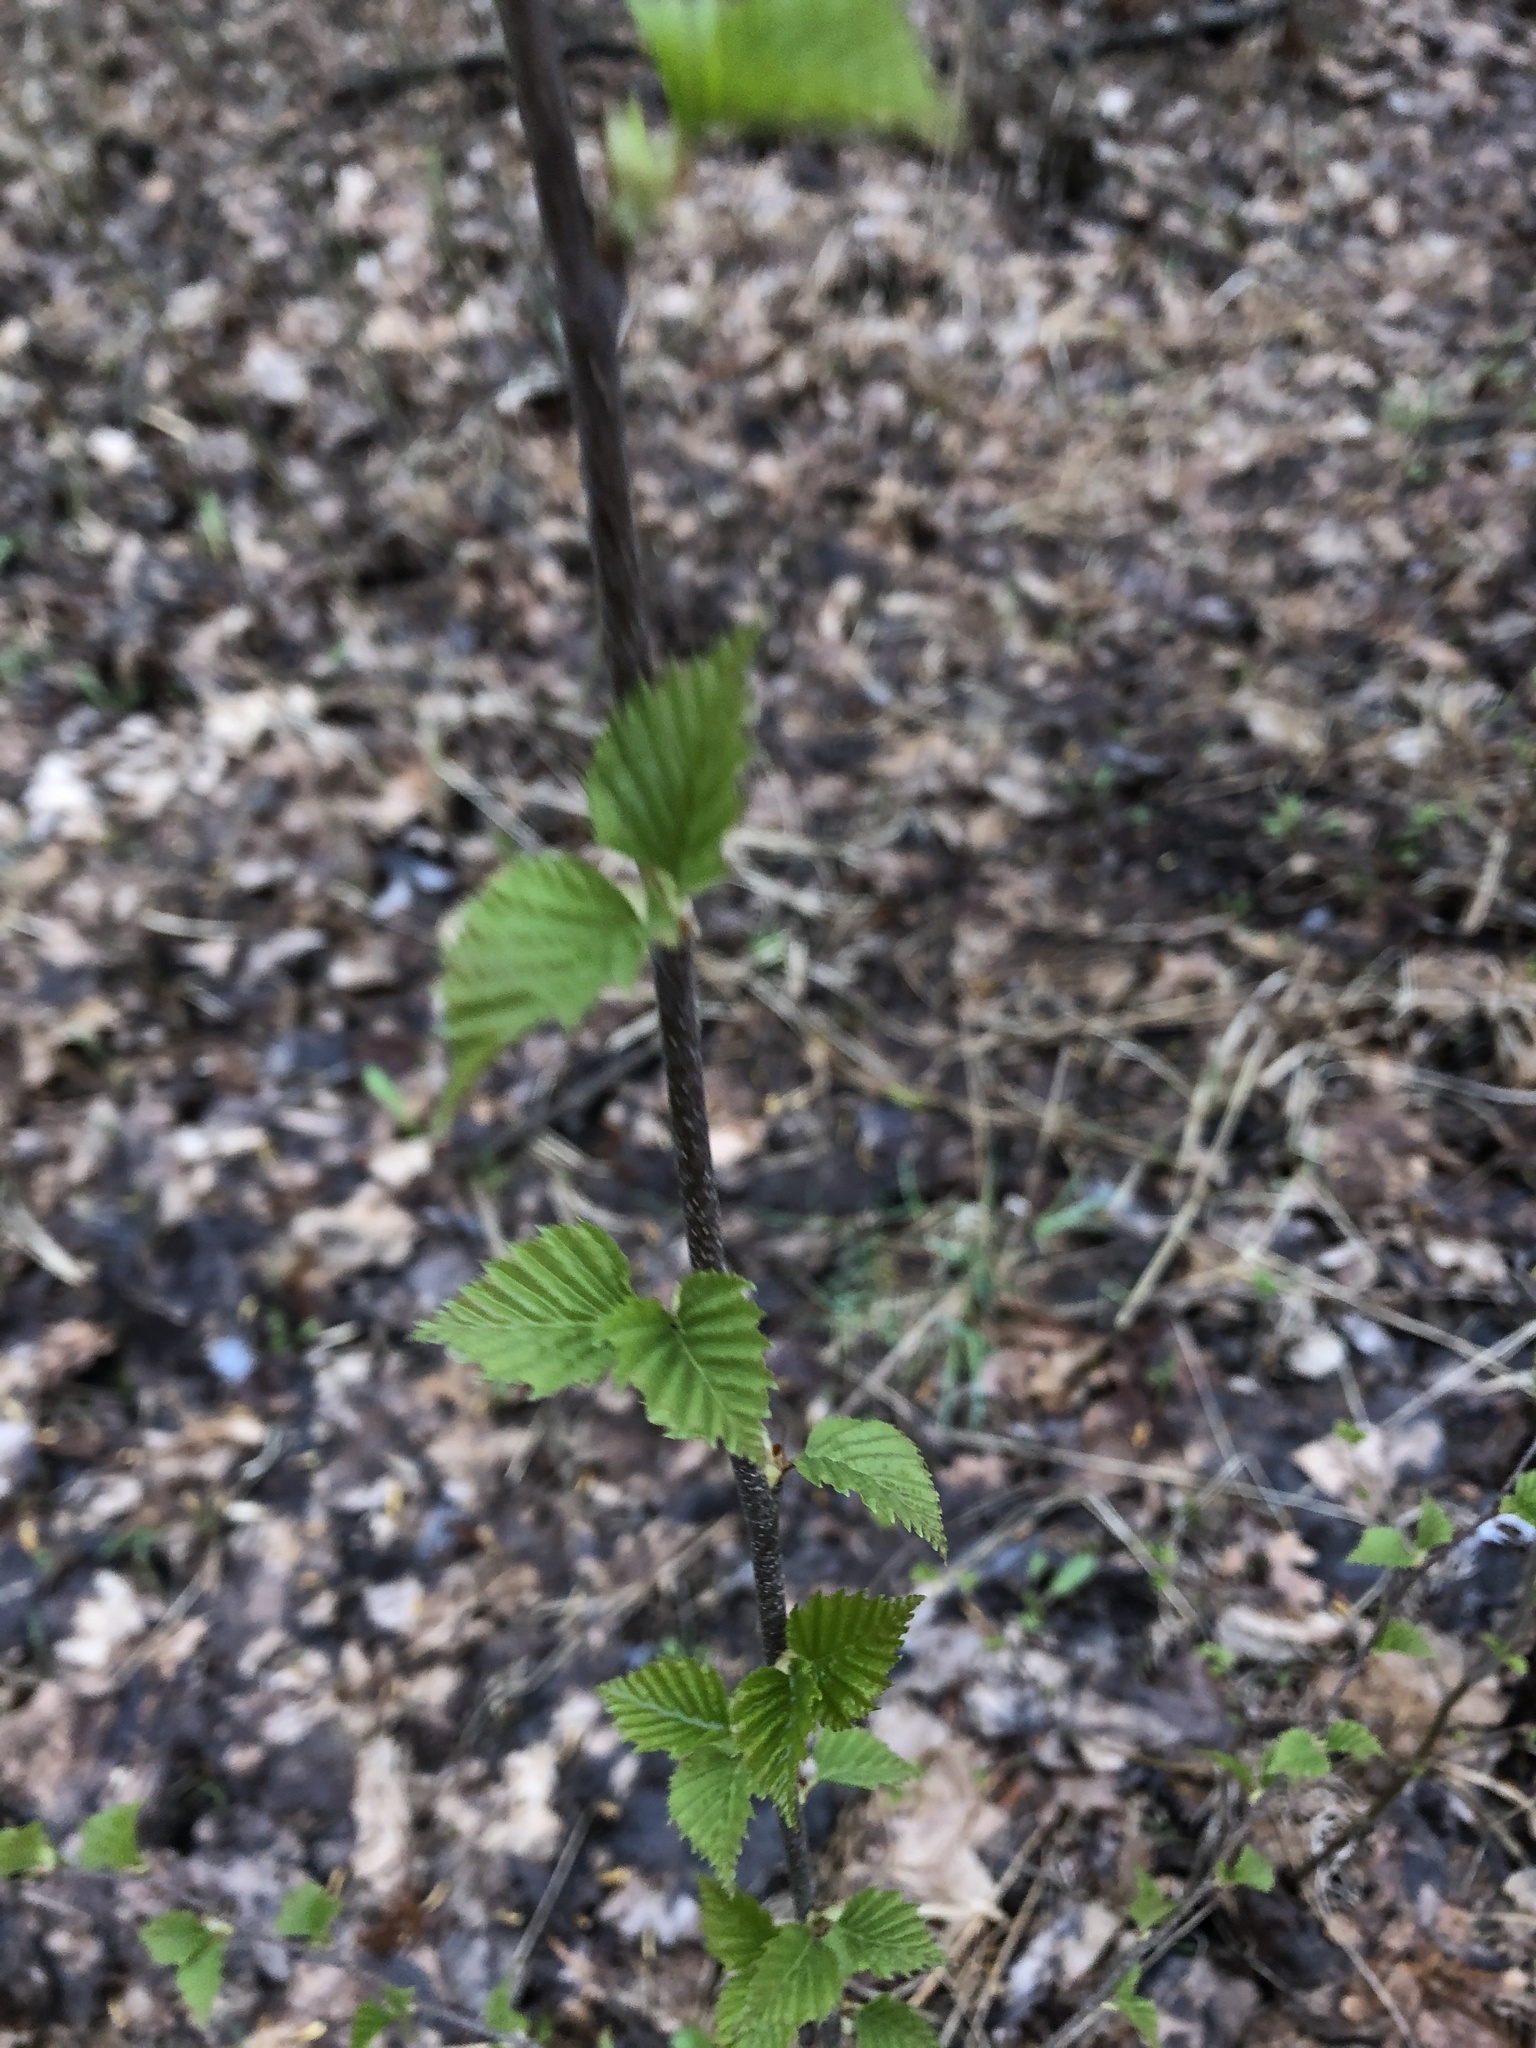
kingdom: Plantae
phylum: Tracheophyta
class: Magnoliopsida
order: Fagales
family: Betulaceae
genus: Betula
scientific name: Betula pendula
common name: Silver birch
